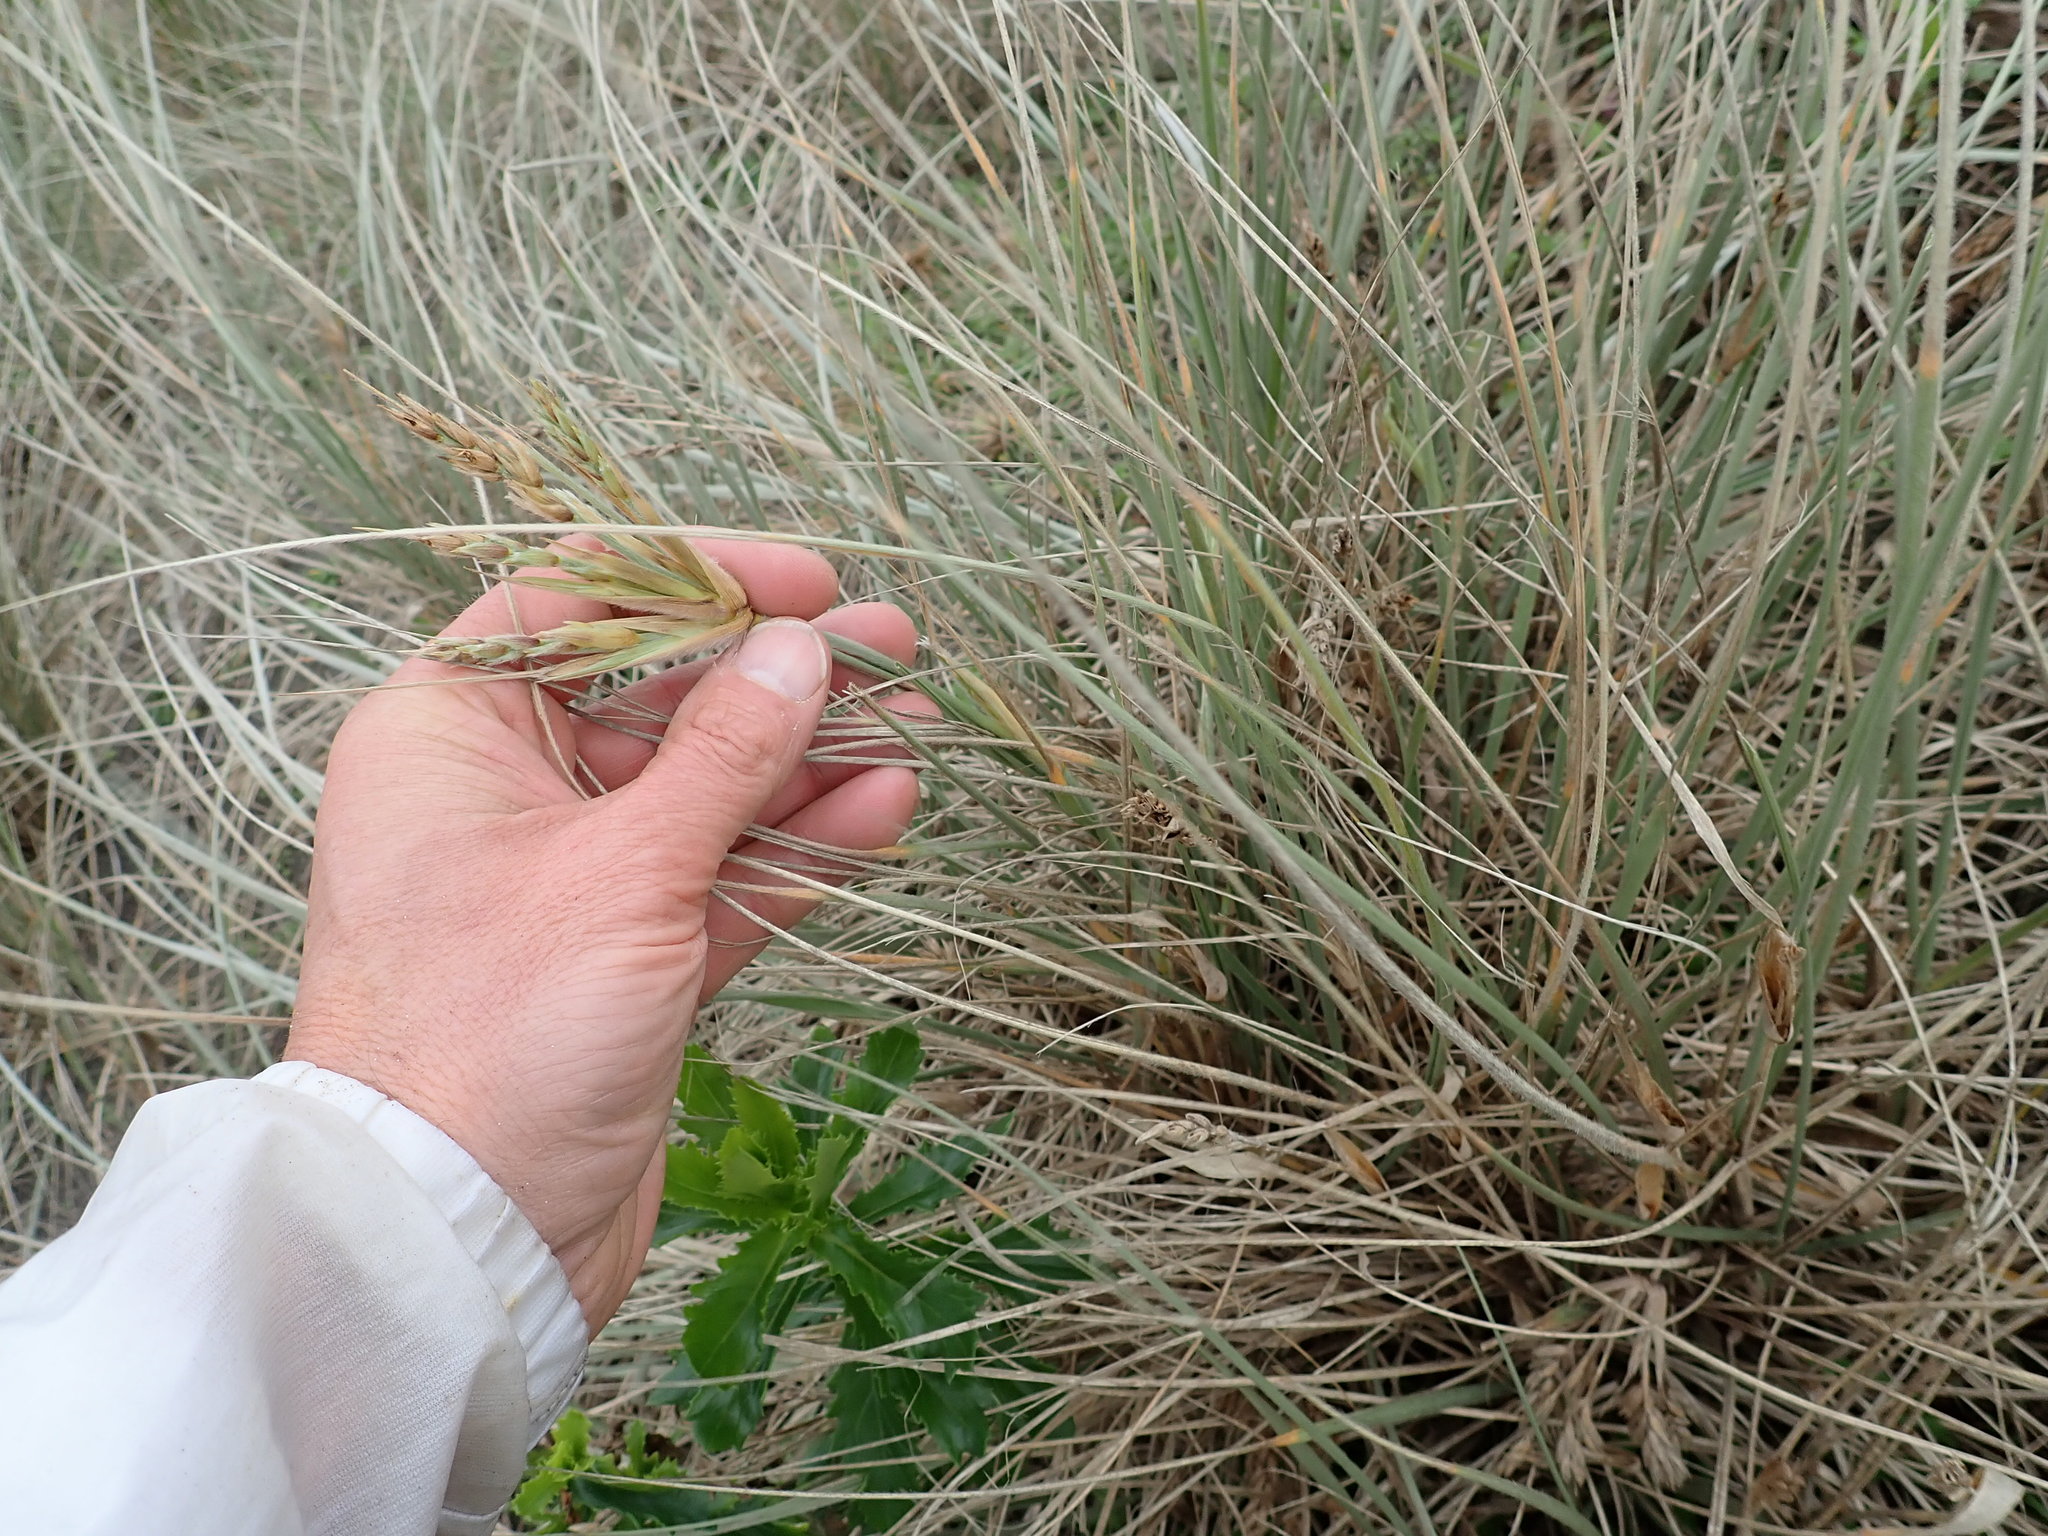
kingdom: Plantae
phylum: Tracheophyta
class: Liliopsida
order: Poales
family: Poaceae
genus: Spinifex
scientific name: Spinifex sericeus
